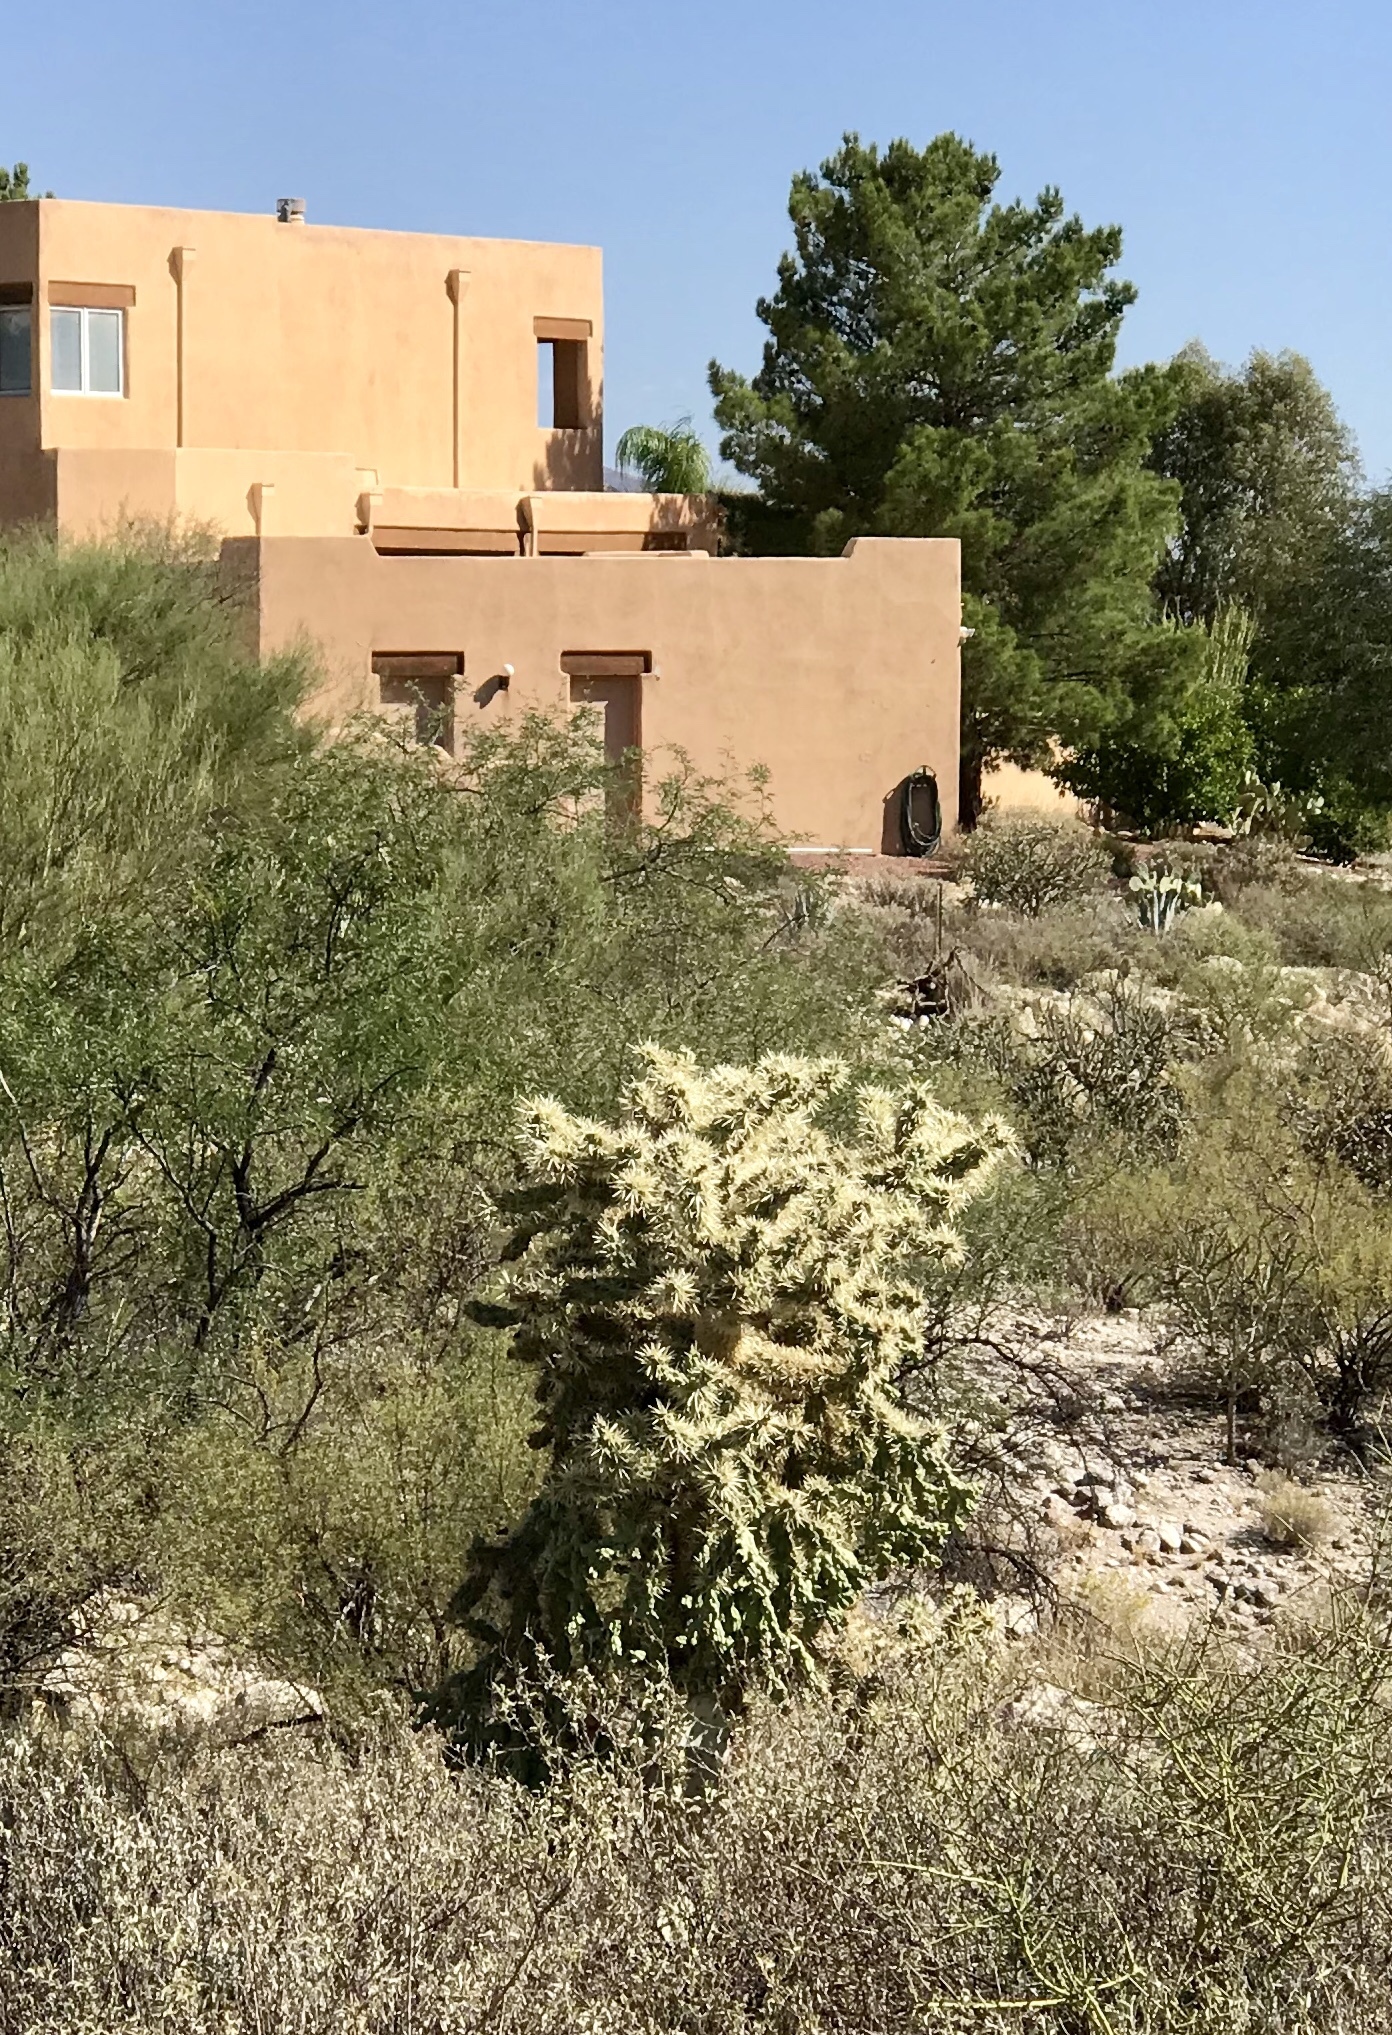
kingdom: Plantae
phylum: Tracheophyta
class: Magnoliopsida
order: Caryophyllales
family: Cactaceae
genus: Cylindropuntia
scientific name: Cylindropuntia fulgida
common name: Jumping cholla
